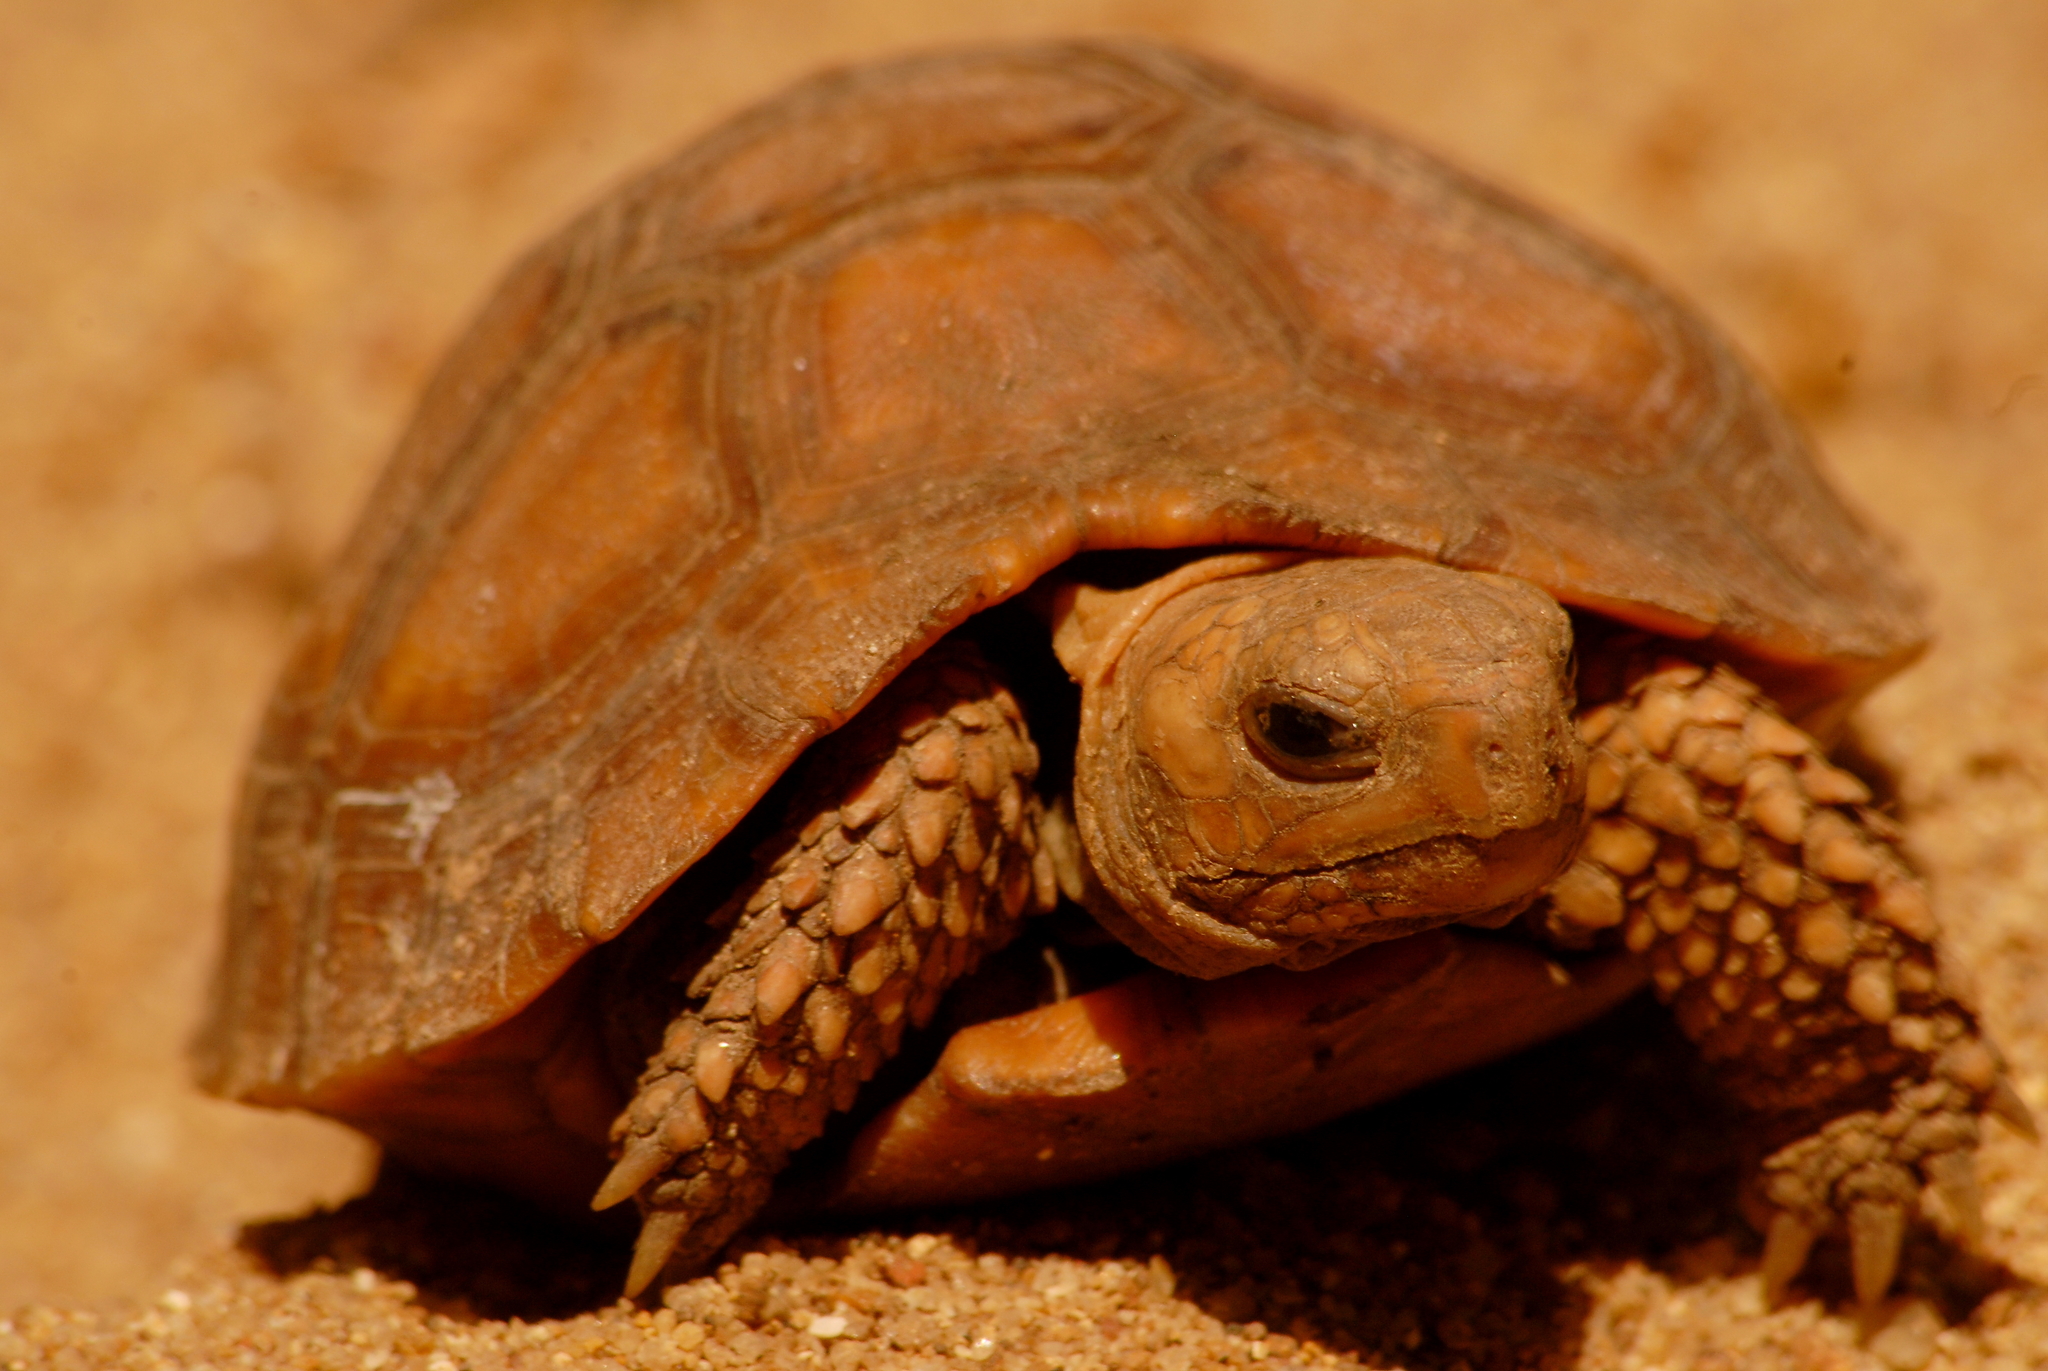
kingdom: Animalia
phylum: Chordata
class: Testudines
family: Testudinidae
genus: Indotestudo
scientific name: Indotestudo travancorica
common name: Travancore tortoise
